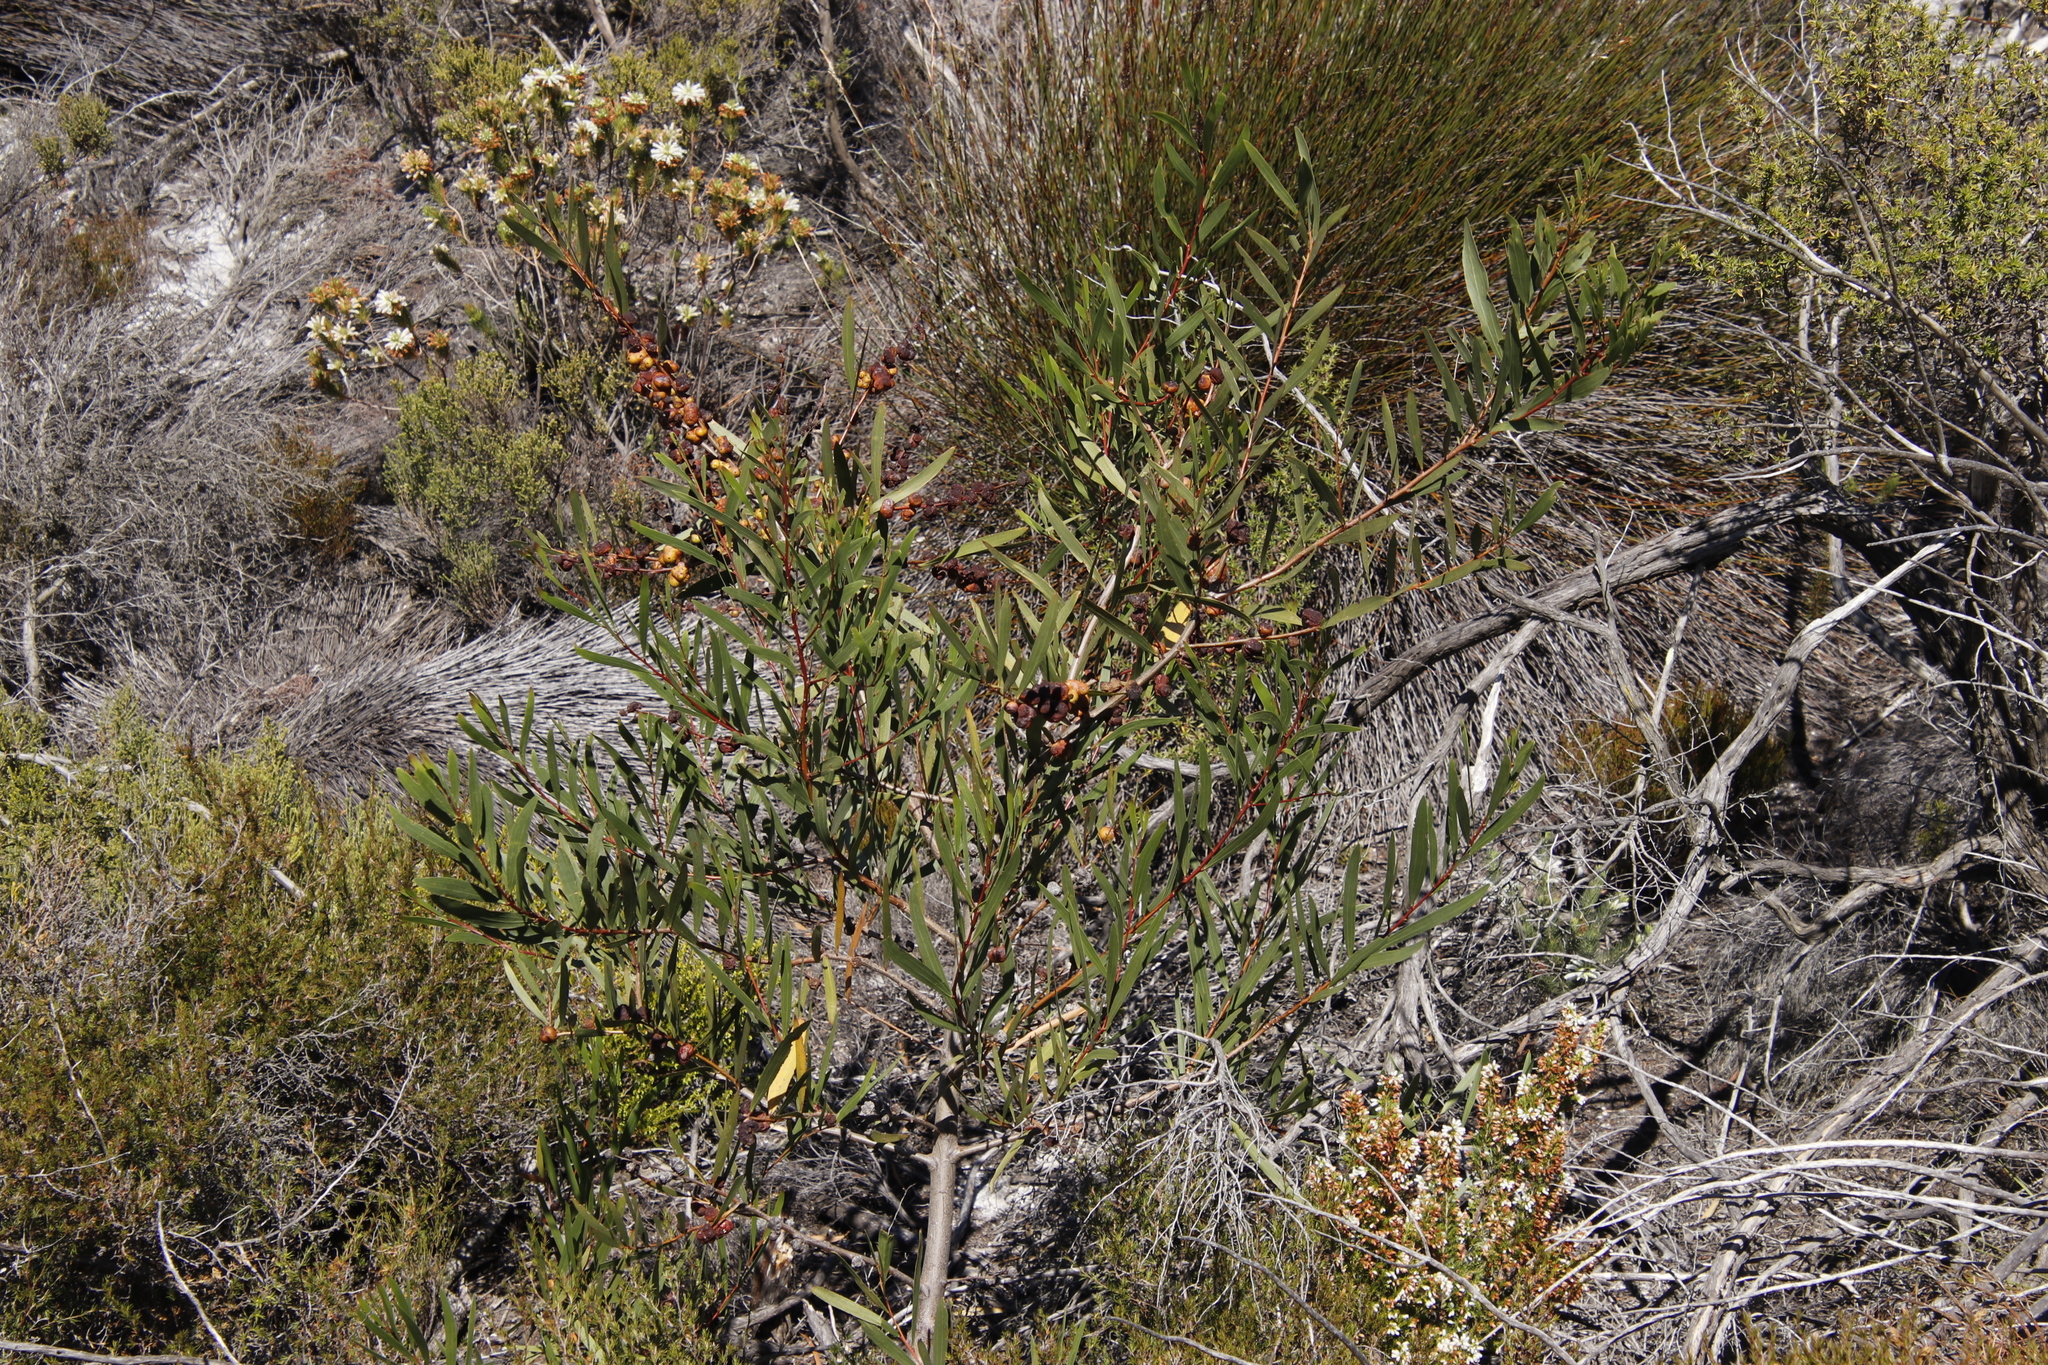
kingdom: Plantae
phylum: Tracheophyta
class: Magnoliopsida
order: Fabales
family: Fabaceae
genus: Acacia
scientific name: Acacia longifolia
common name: Sydney golden wattle
